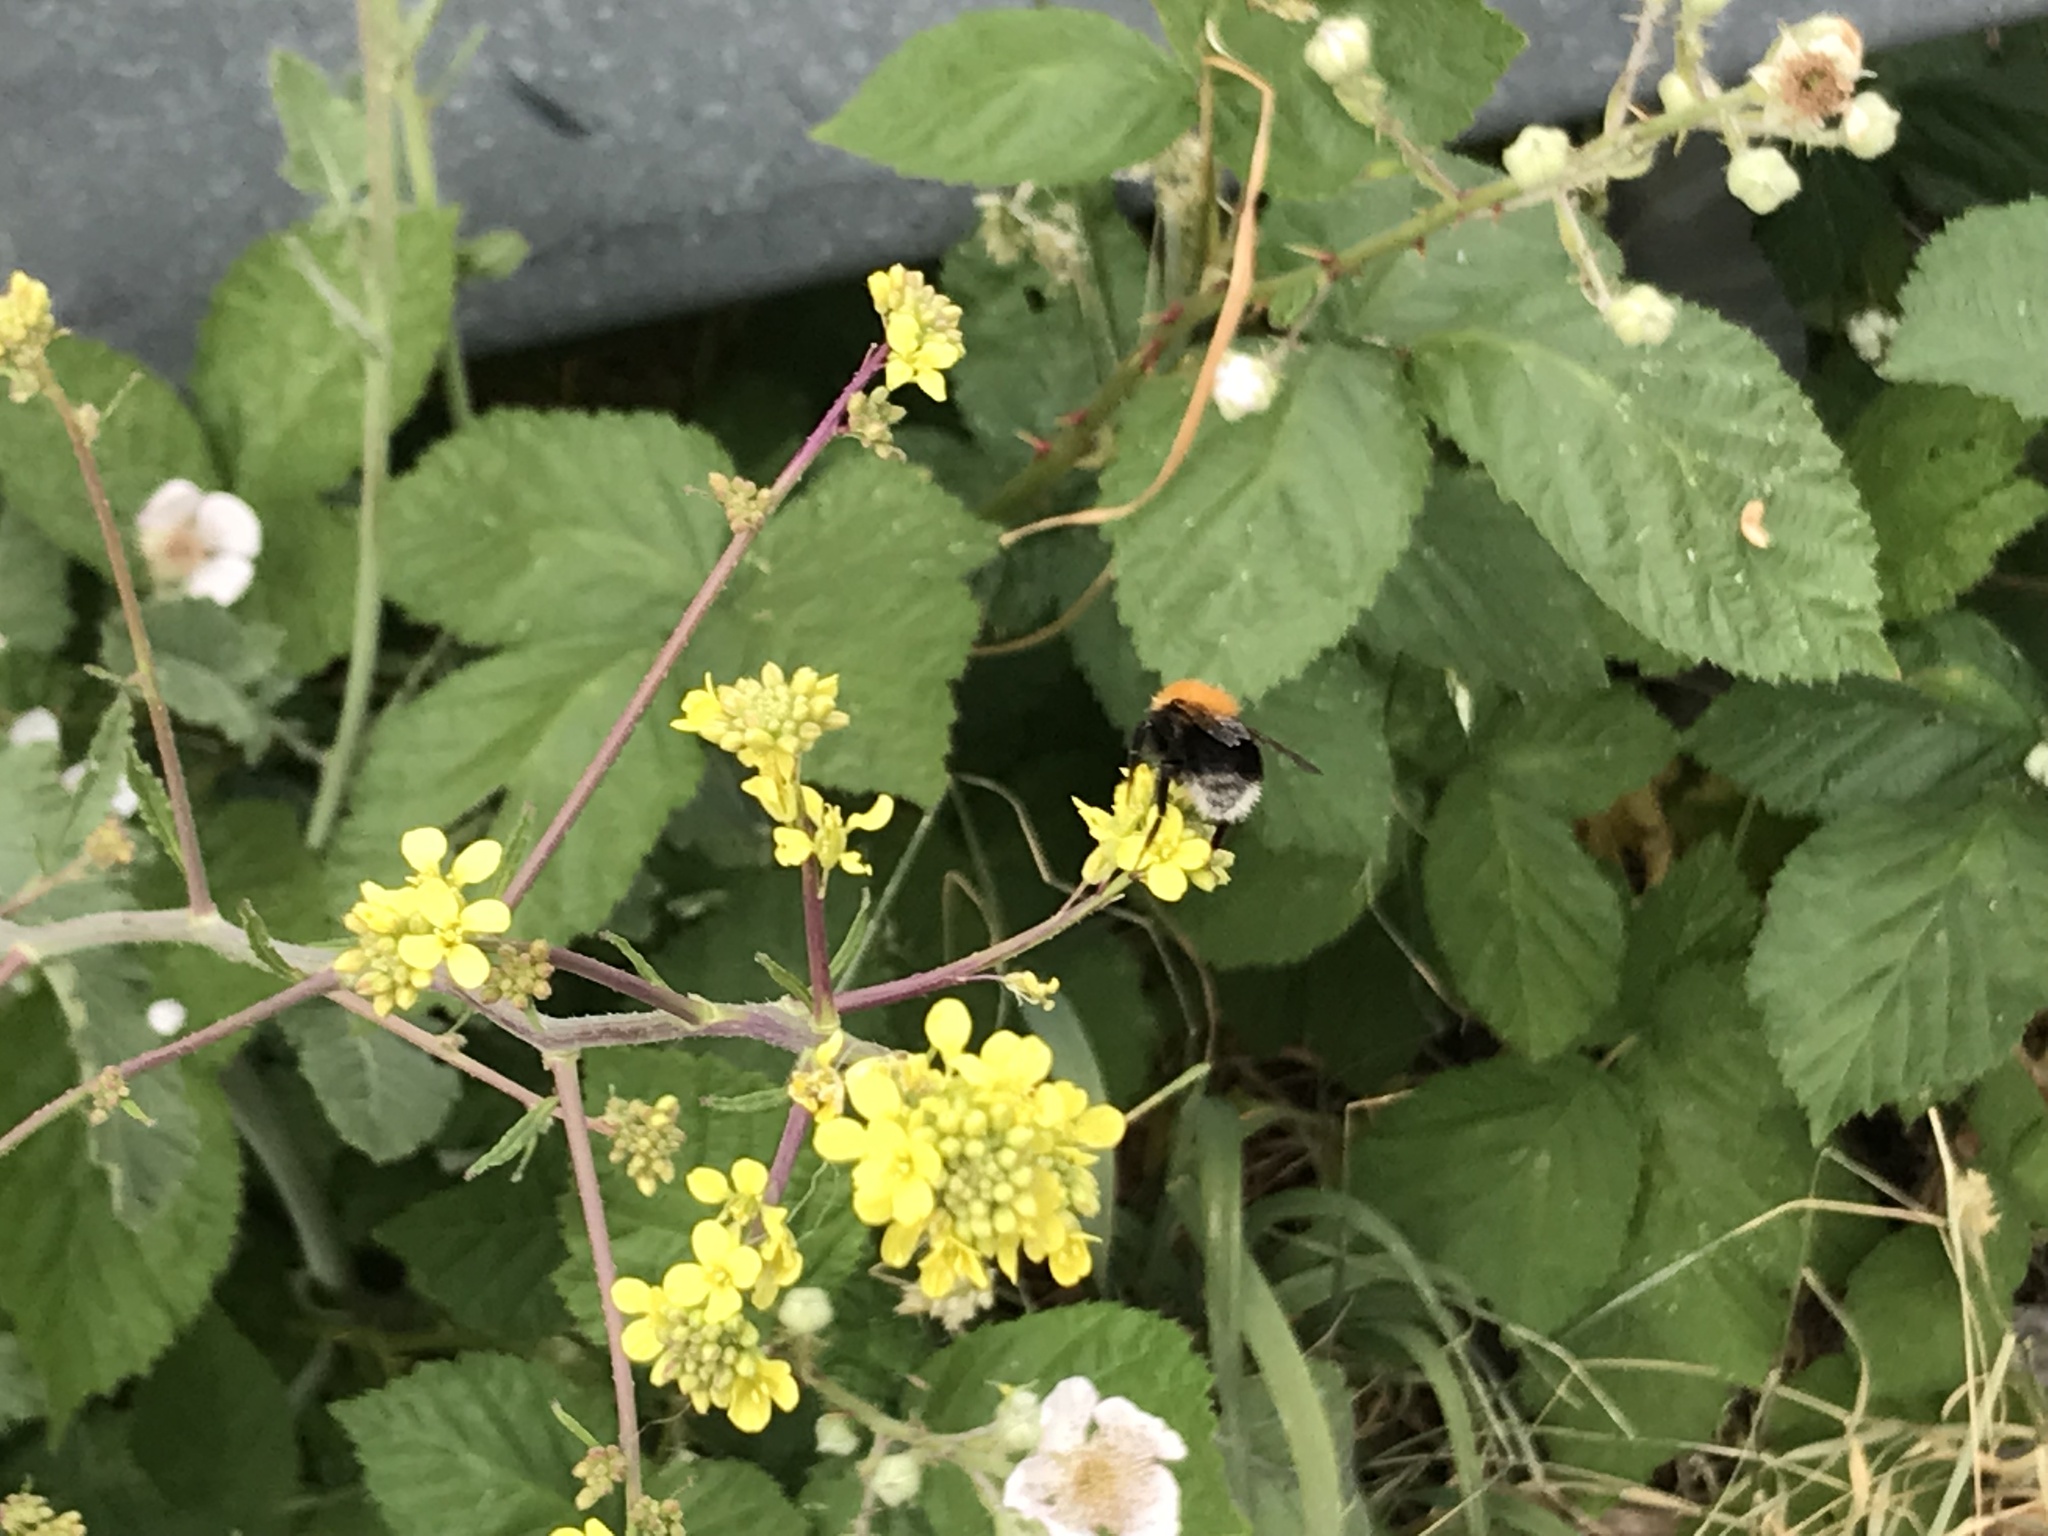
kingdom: Animalia
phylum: Arthropoda
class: Insecta
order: Hymenoptera
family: Apidae
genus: Bombus
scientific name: Bombus hypnorum
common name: New garden bumblebee
